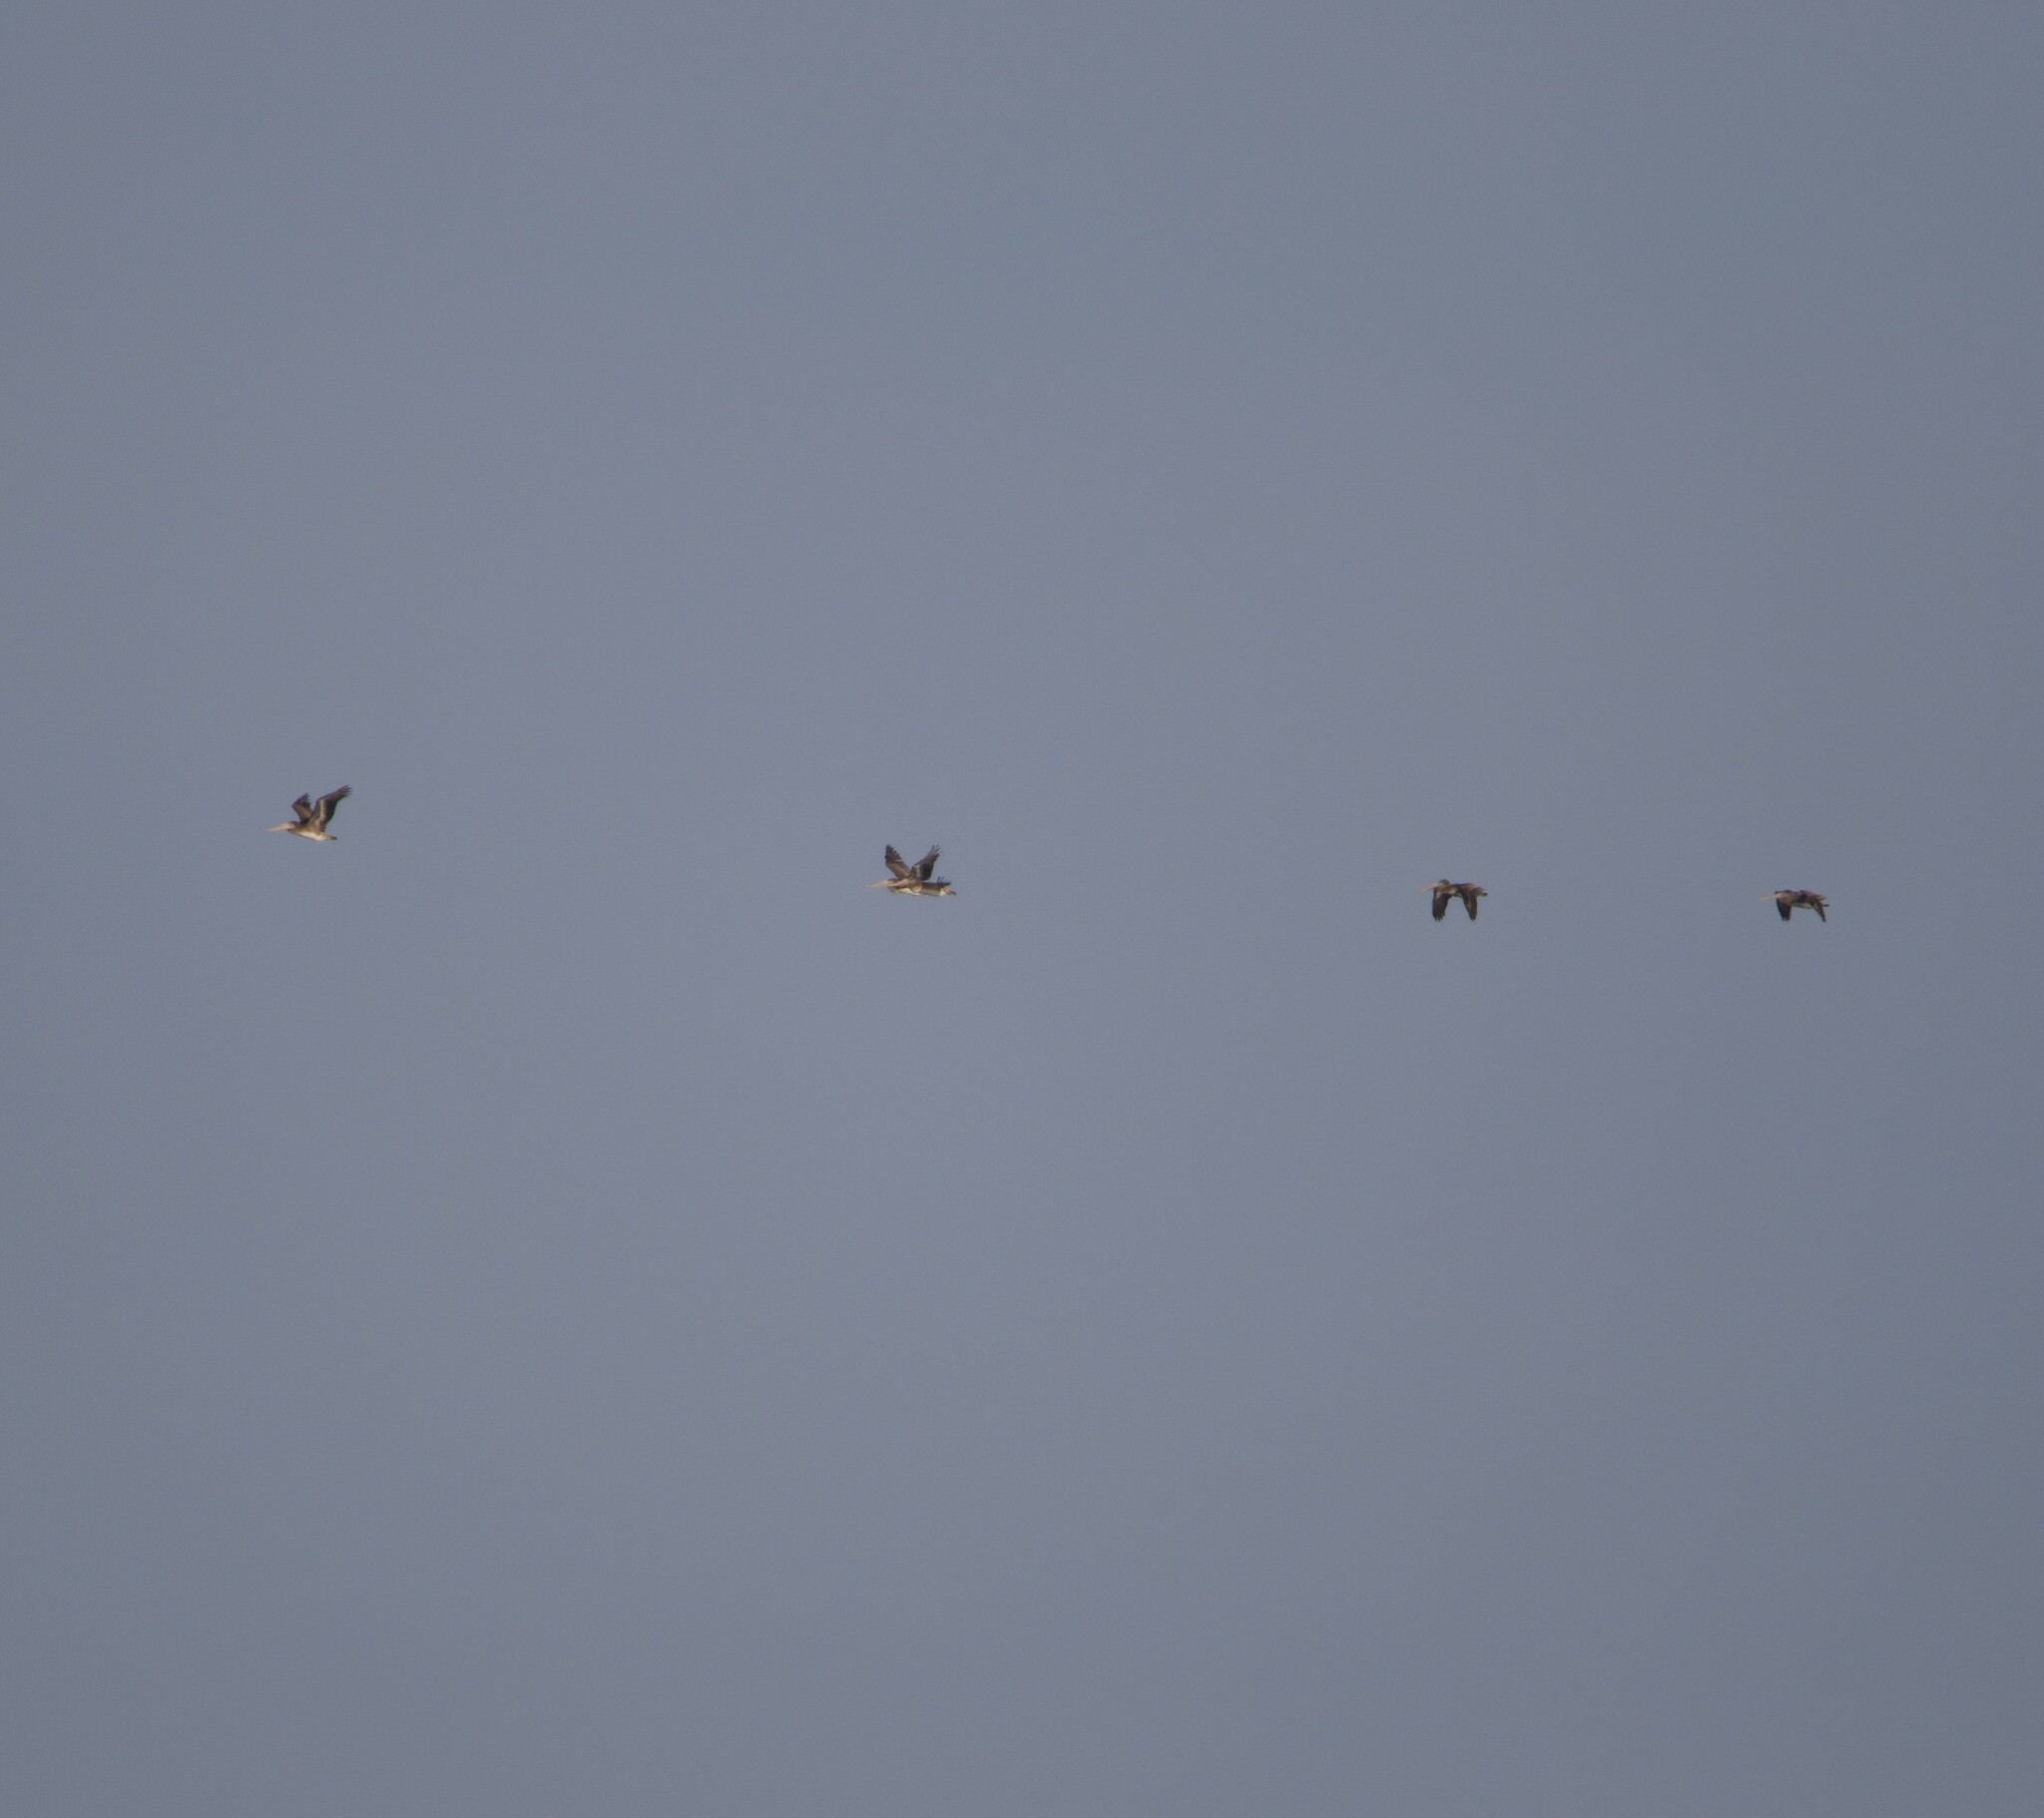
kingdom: Animalia
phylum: Chordata
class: Aves
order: Pelecaniformes
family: Pelecanidae
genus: Pelecanus
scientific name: Pelecanus occidentalis
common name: Brown pelican
